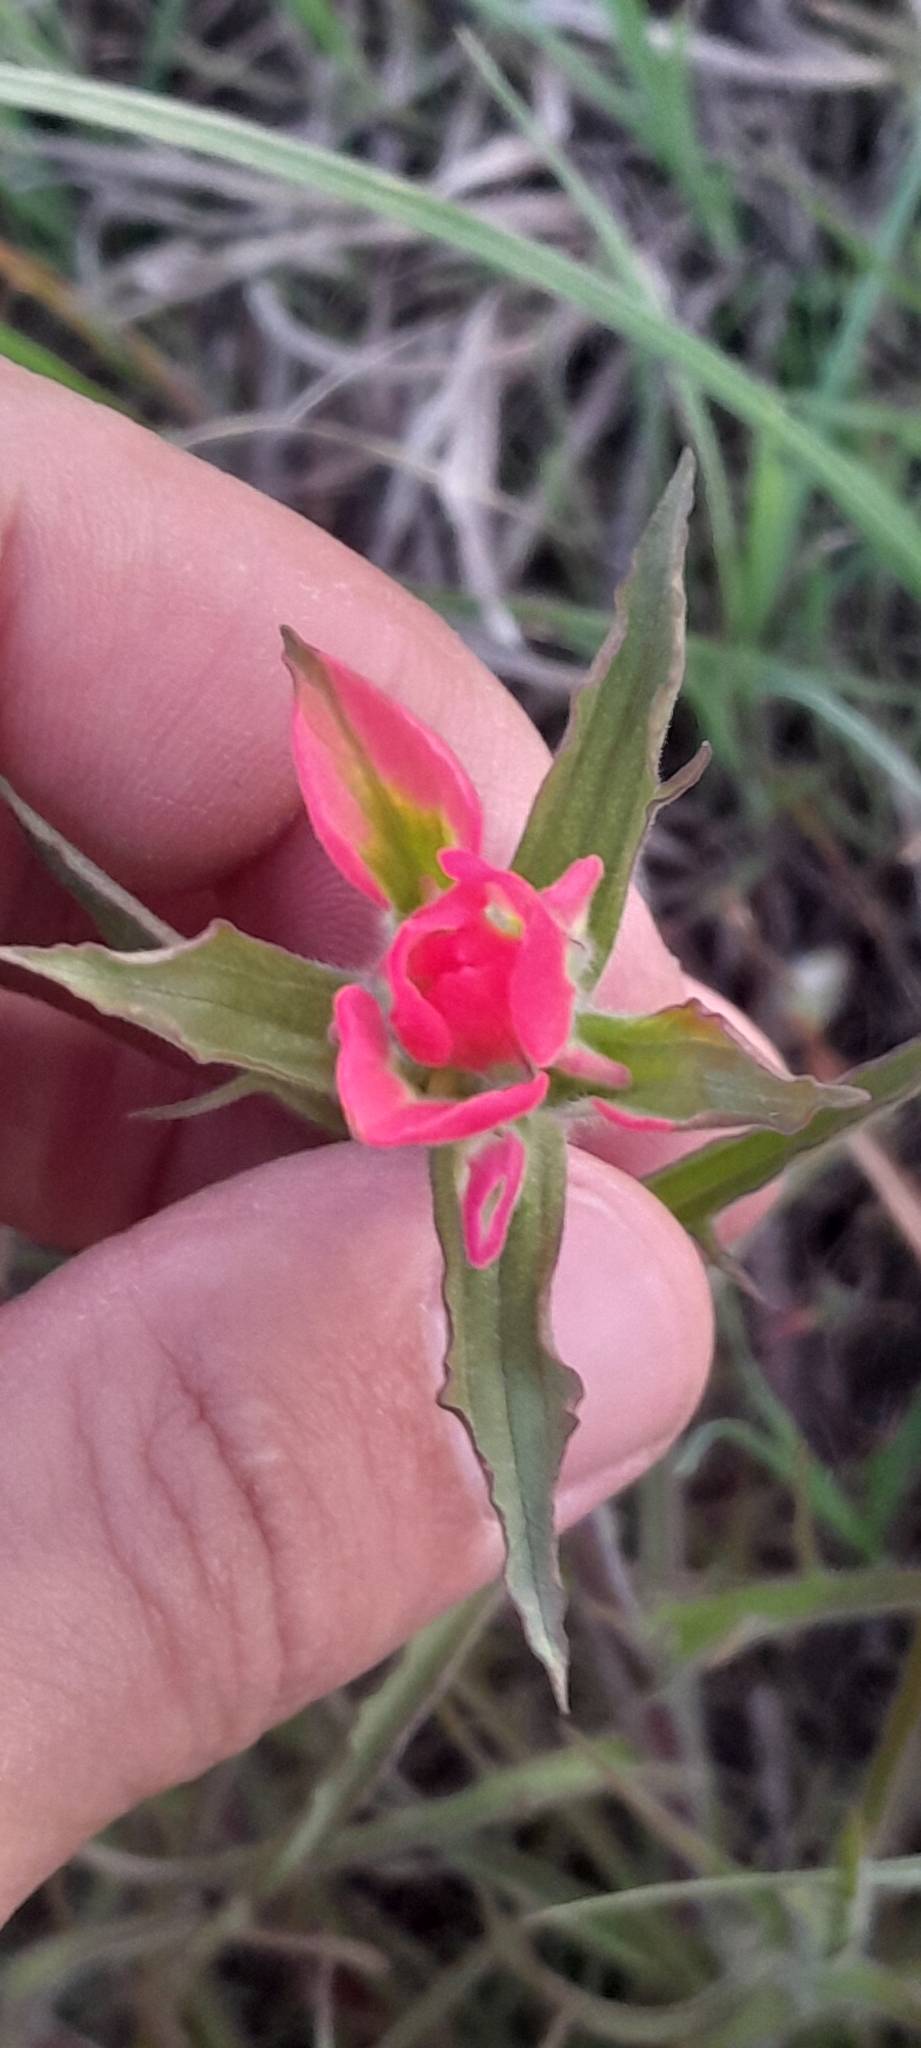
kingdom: Plantae
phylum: Tracheophyta
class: Magnoliopsida
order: Lamiales
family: Orobanchaceae
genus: Castilleja
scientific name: Castilleja indivisa
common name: Texas paintbrush
